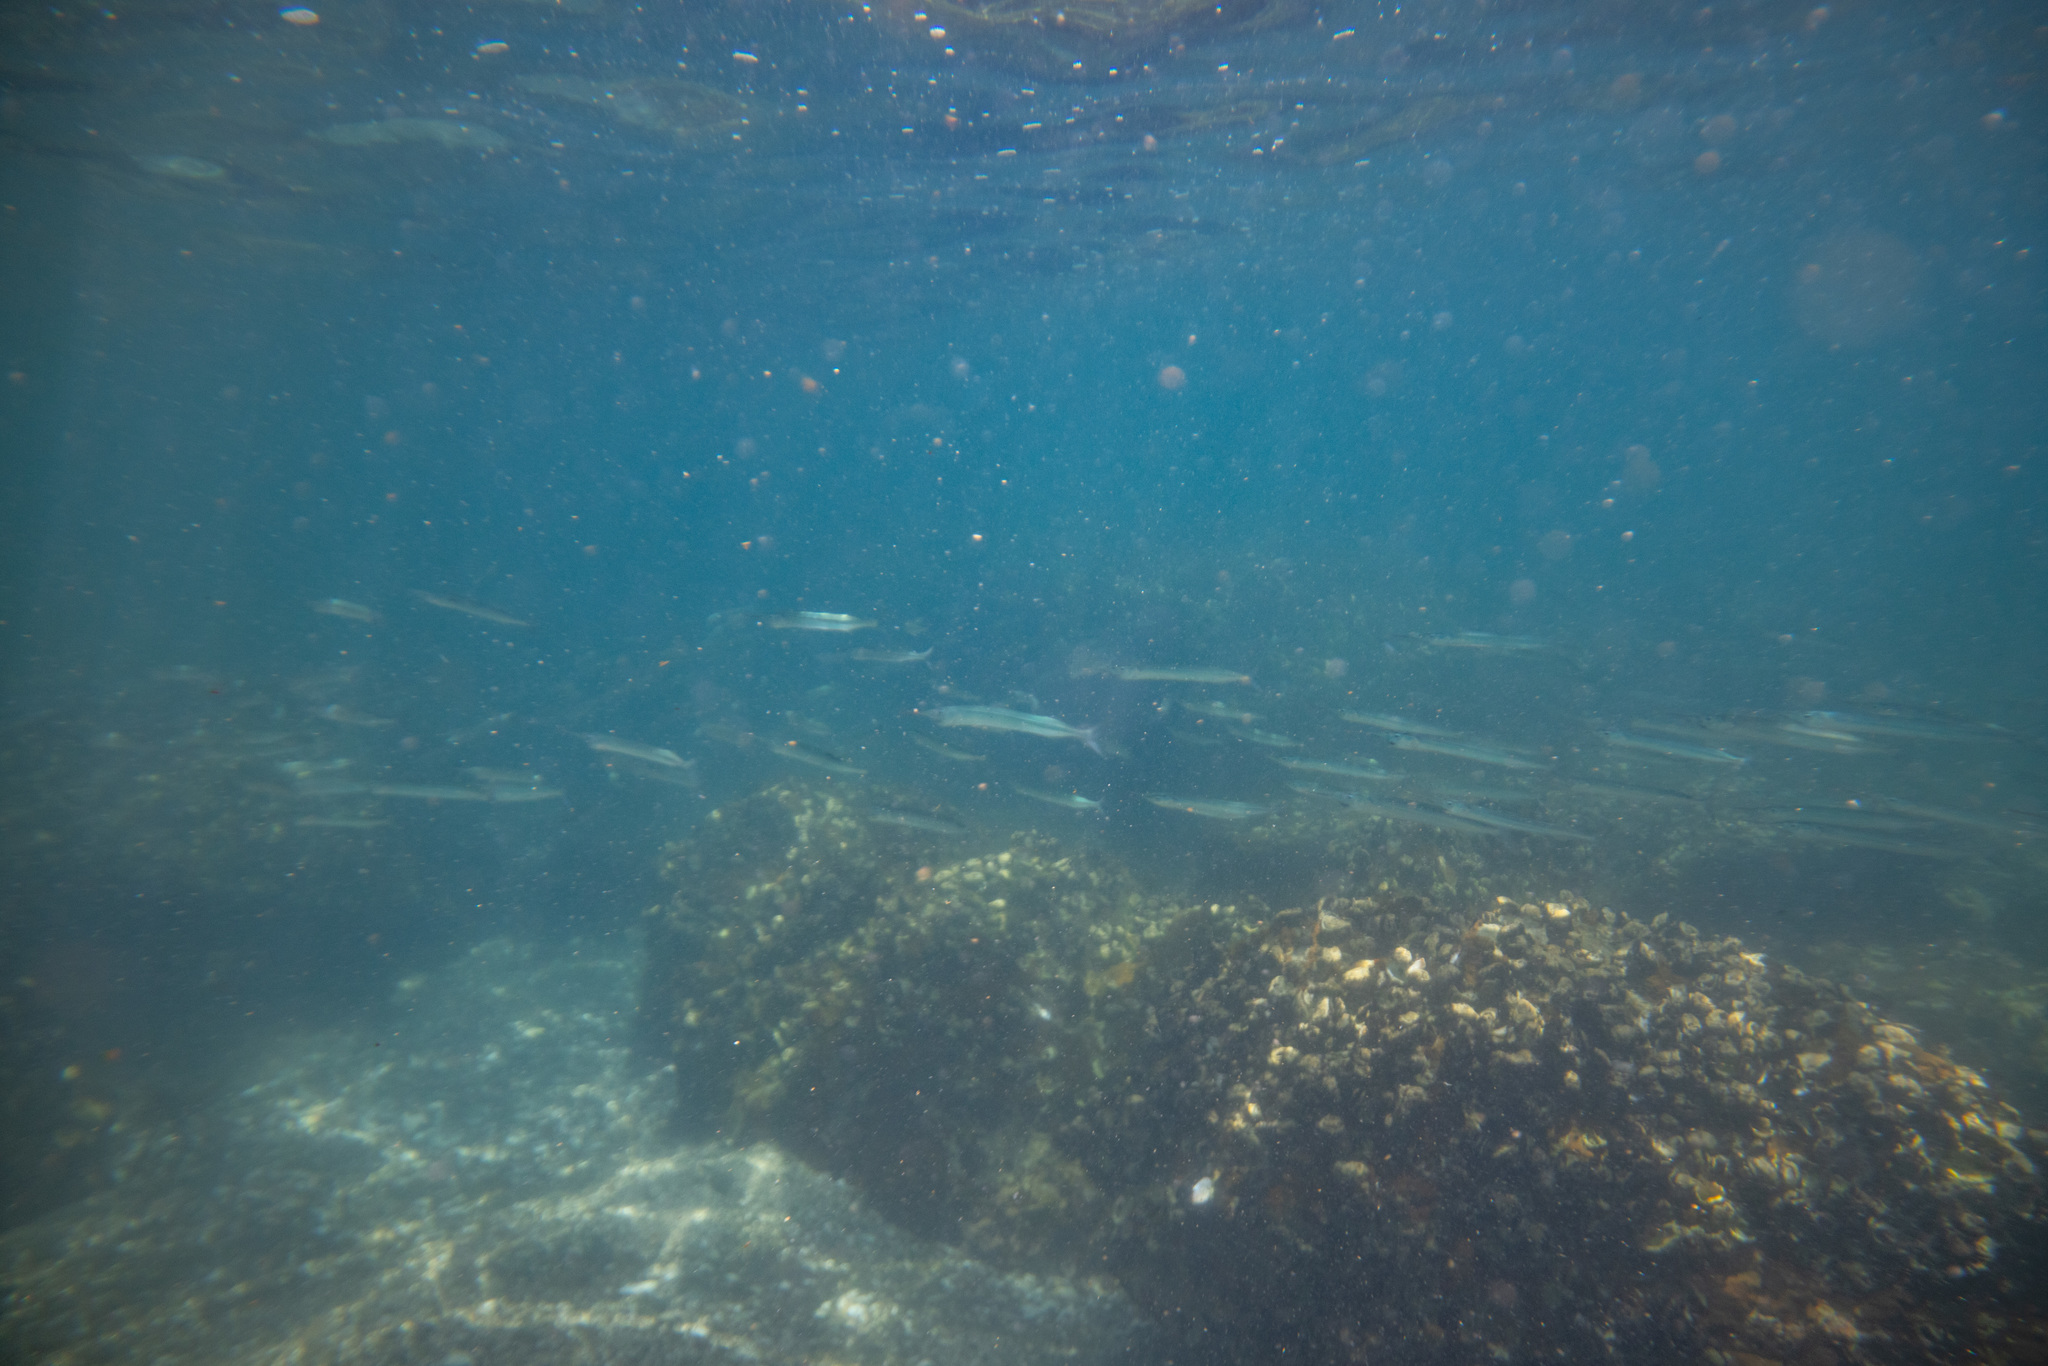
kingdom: Animalia
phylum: Chordata
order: Beloniformes
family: Hemiramphidae
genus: Hyporhamphus
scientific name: Hyporhamphus ihi
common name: Garfish
